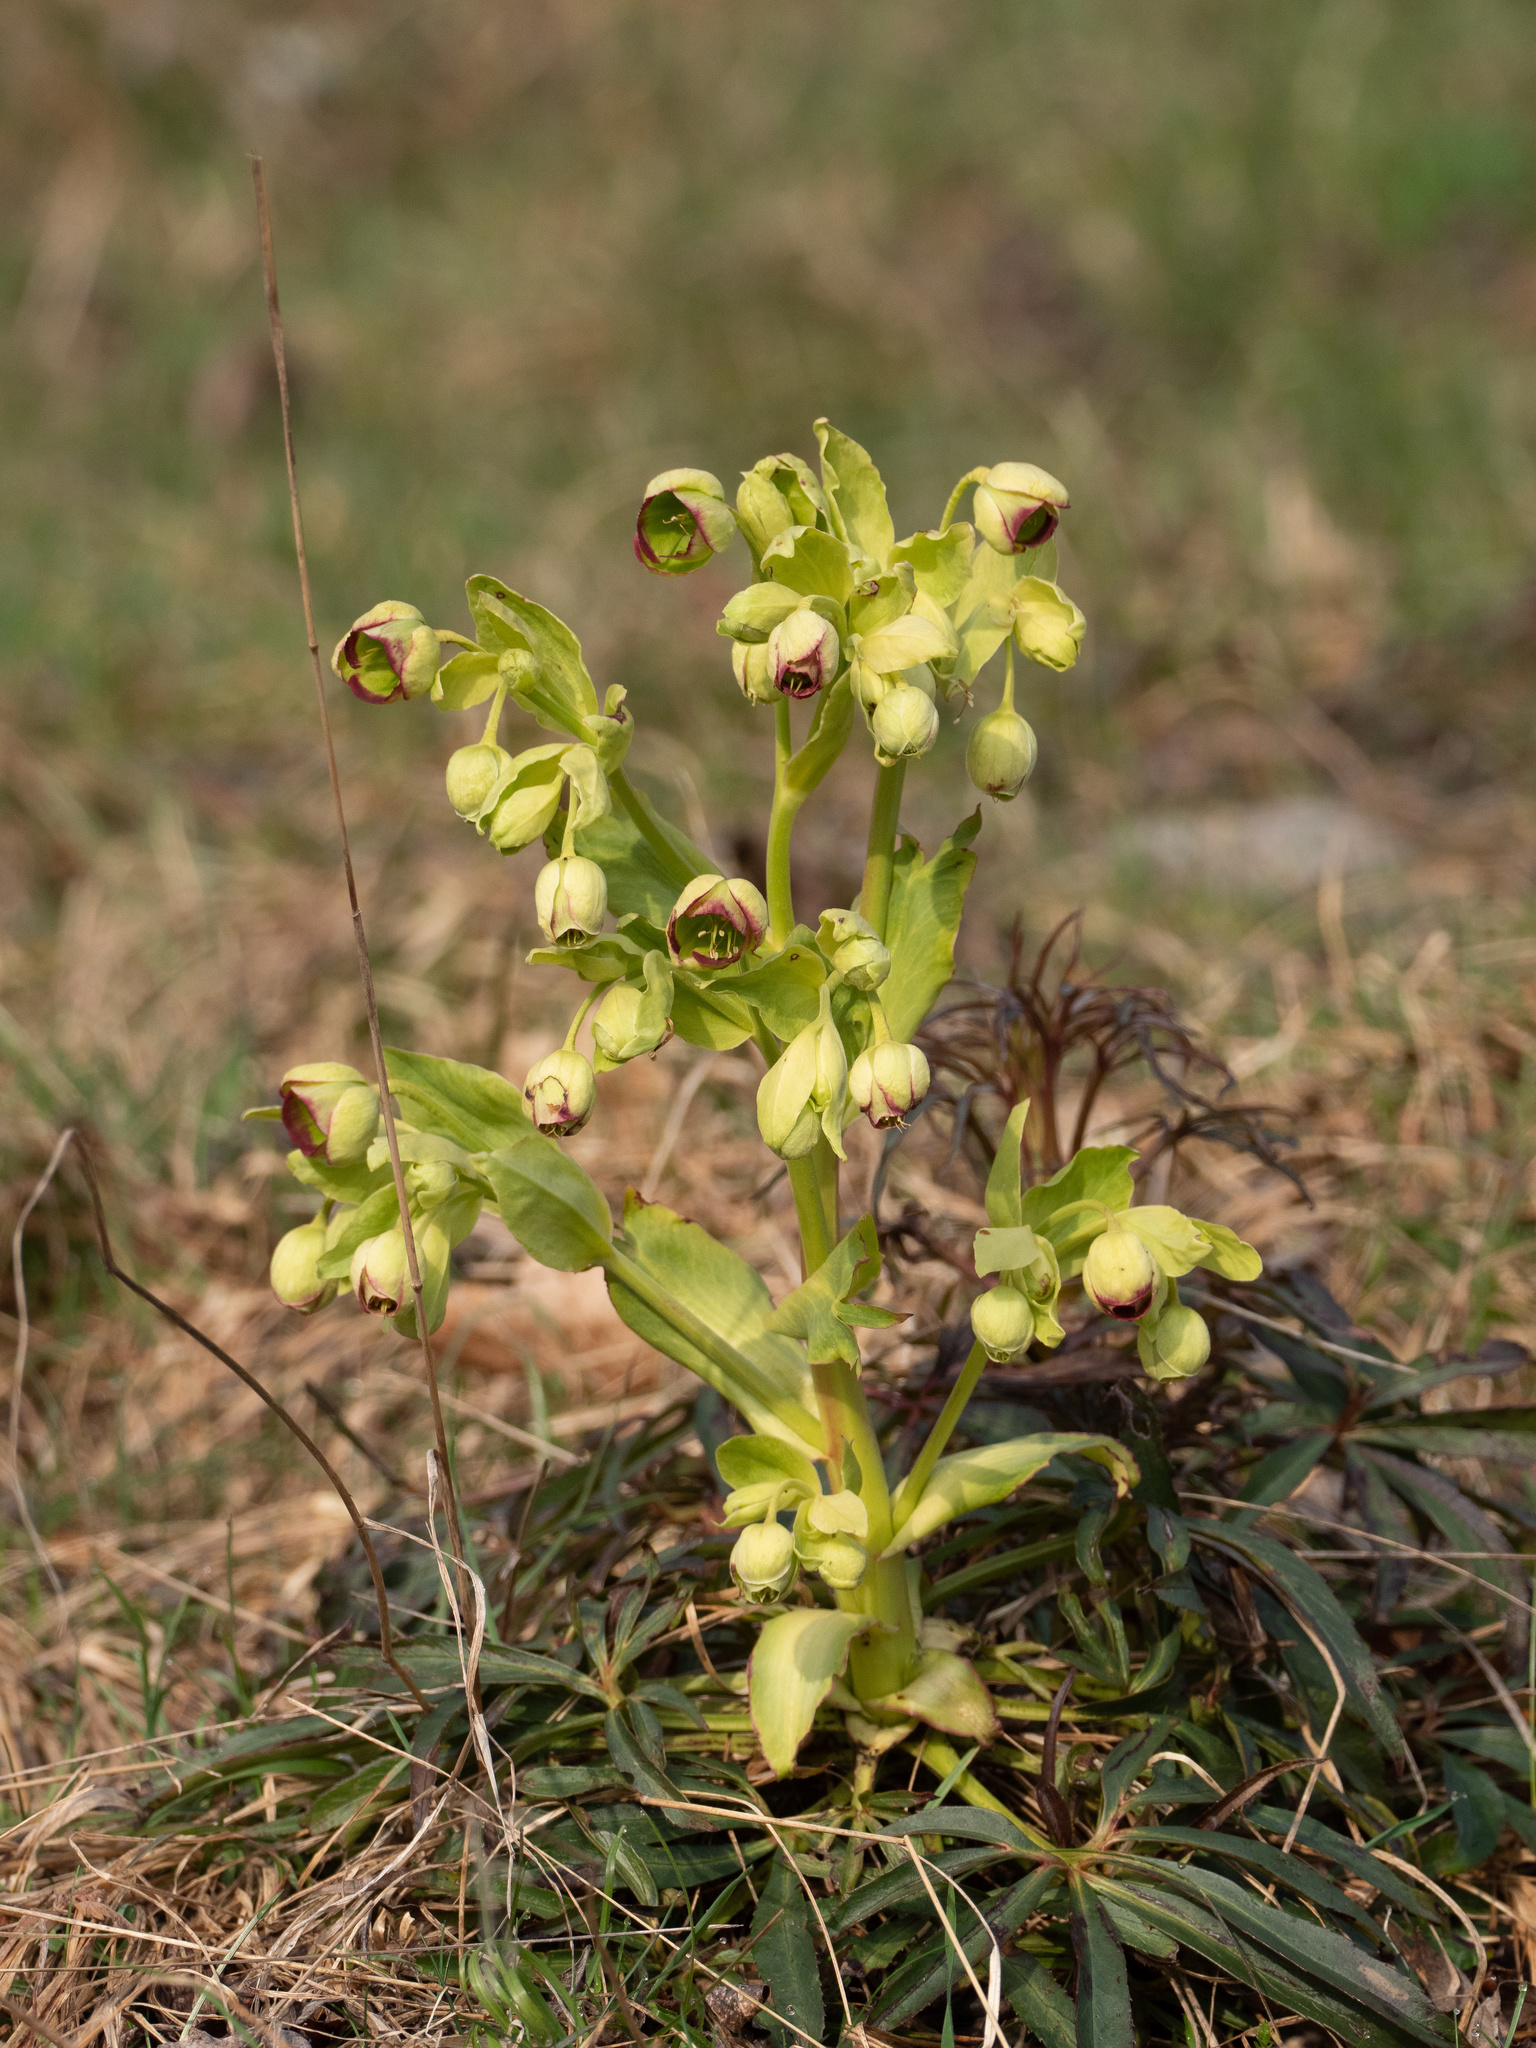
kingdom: Plantae
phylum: Tracheophyta
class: Magnoliopsida
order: Ranunculales
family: Ranunculaceae
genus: Helleborus
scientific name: Helleborus foetidus
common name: Stinking hellebore
